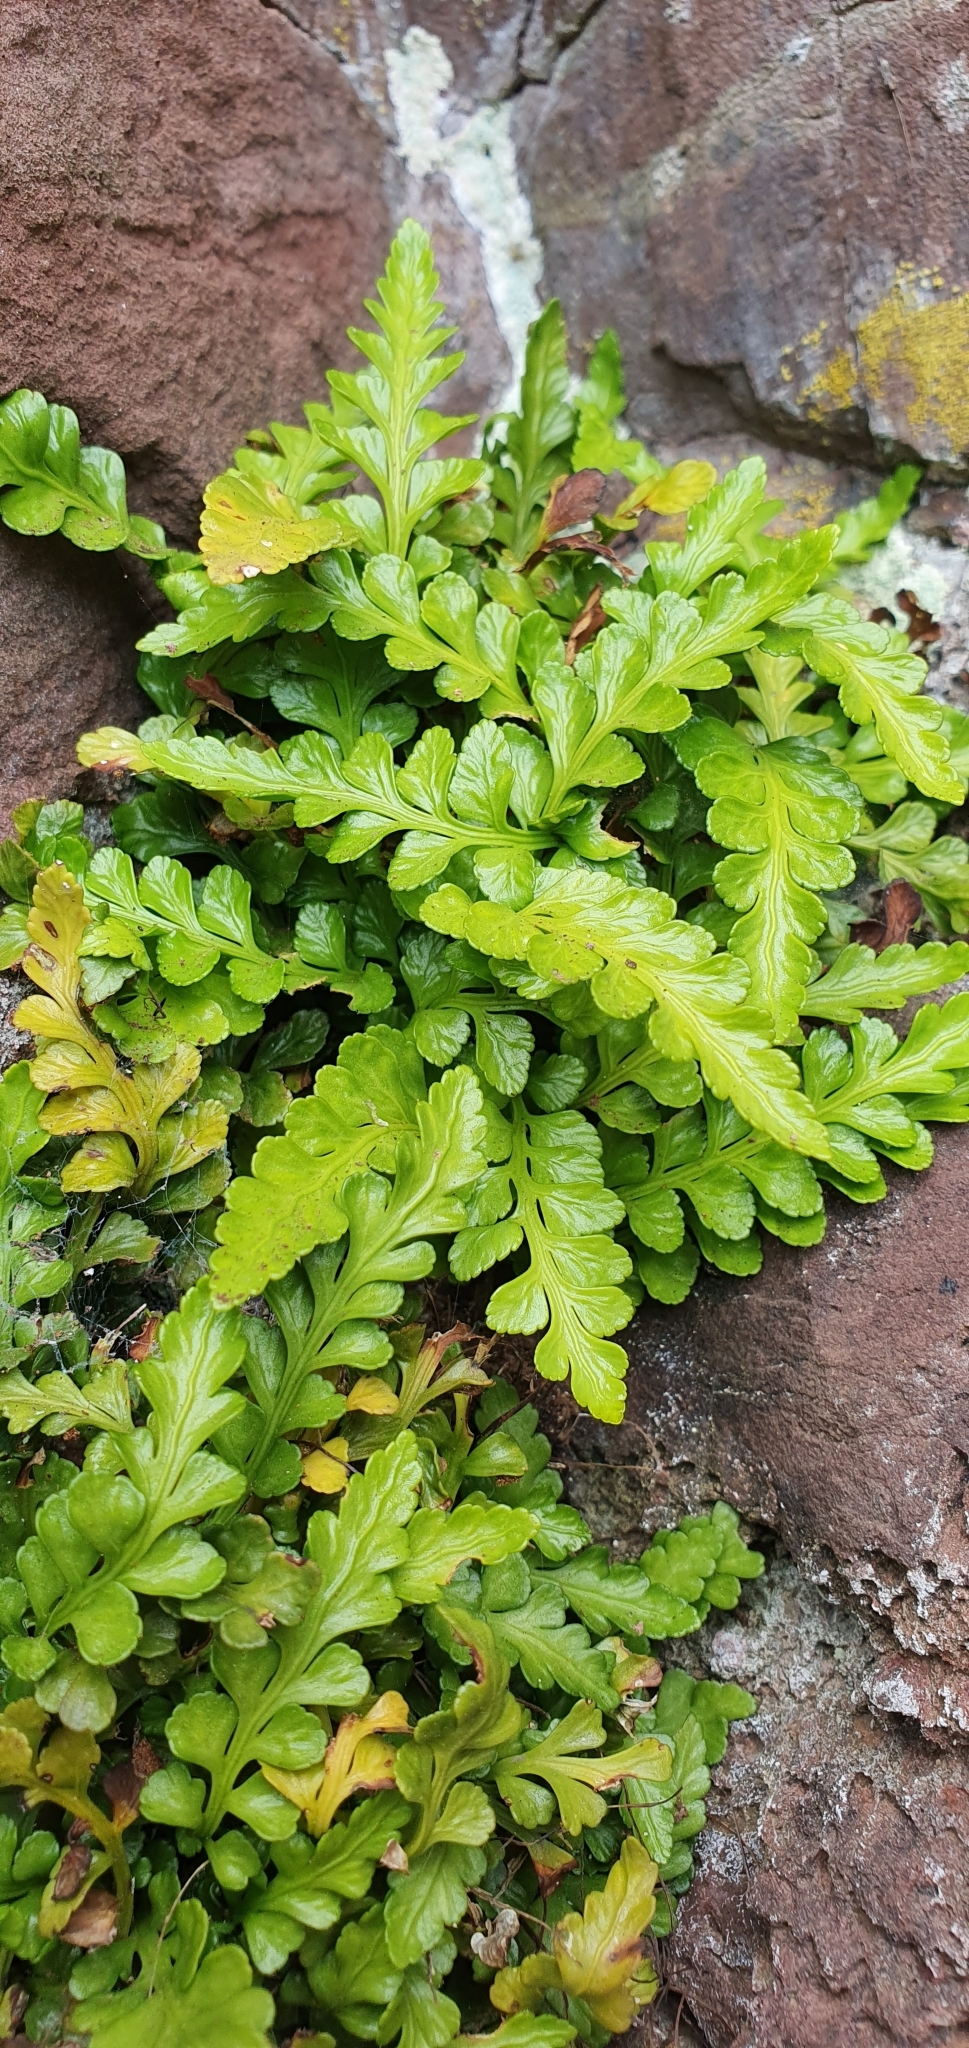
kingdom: Plantae
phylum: Tracheophyta
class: Polypodiopsida
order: Polypodiales
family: Aspleniaceae
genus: Asplenium
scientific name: Asplenium marinum
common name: Sea spleenwort
